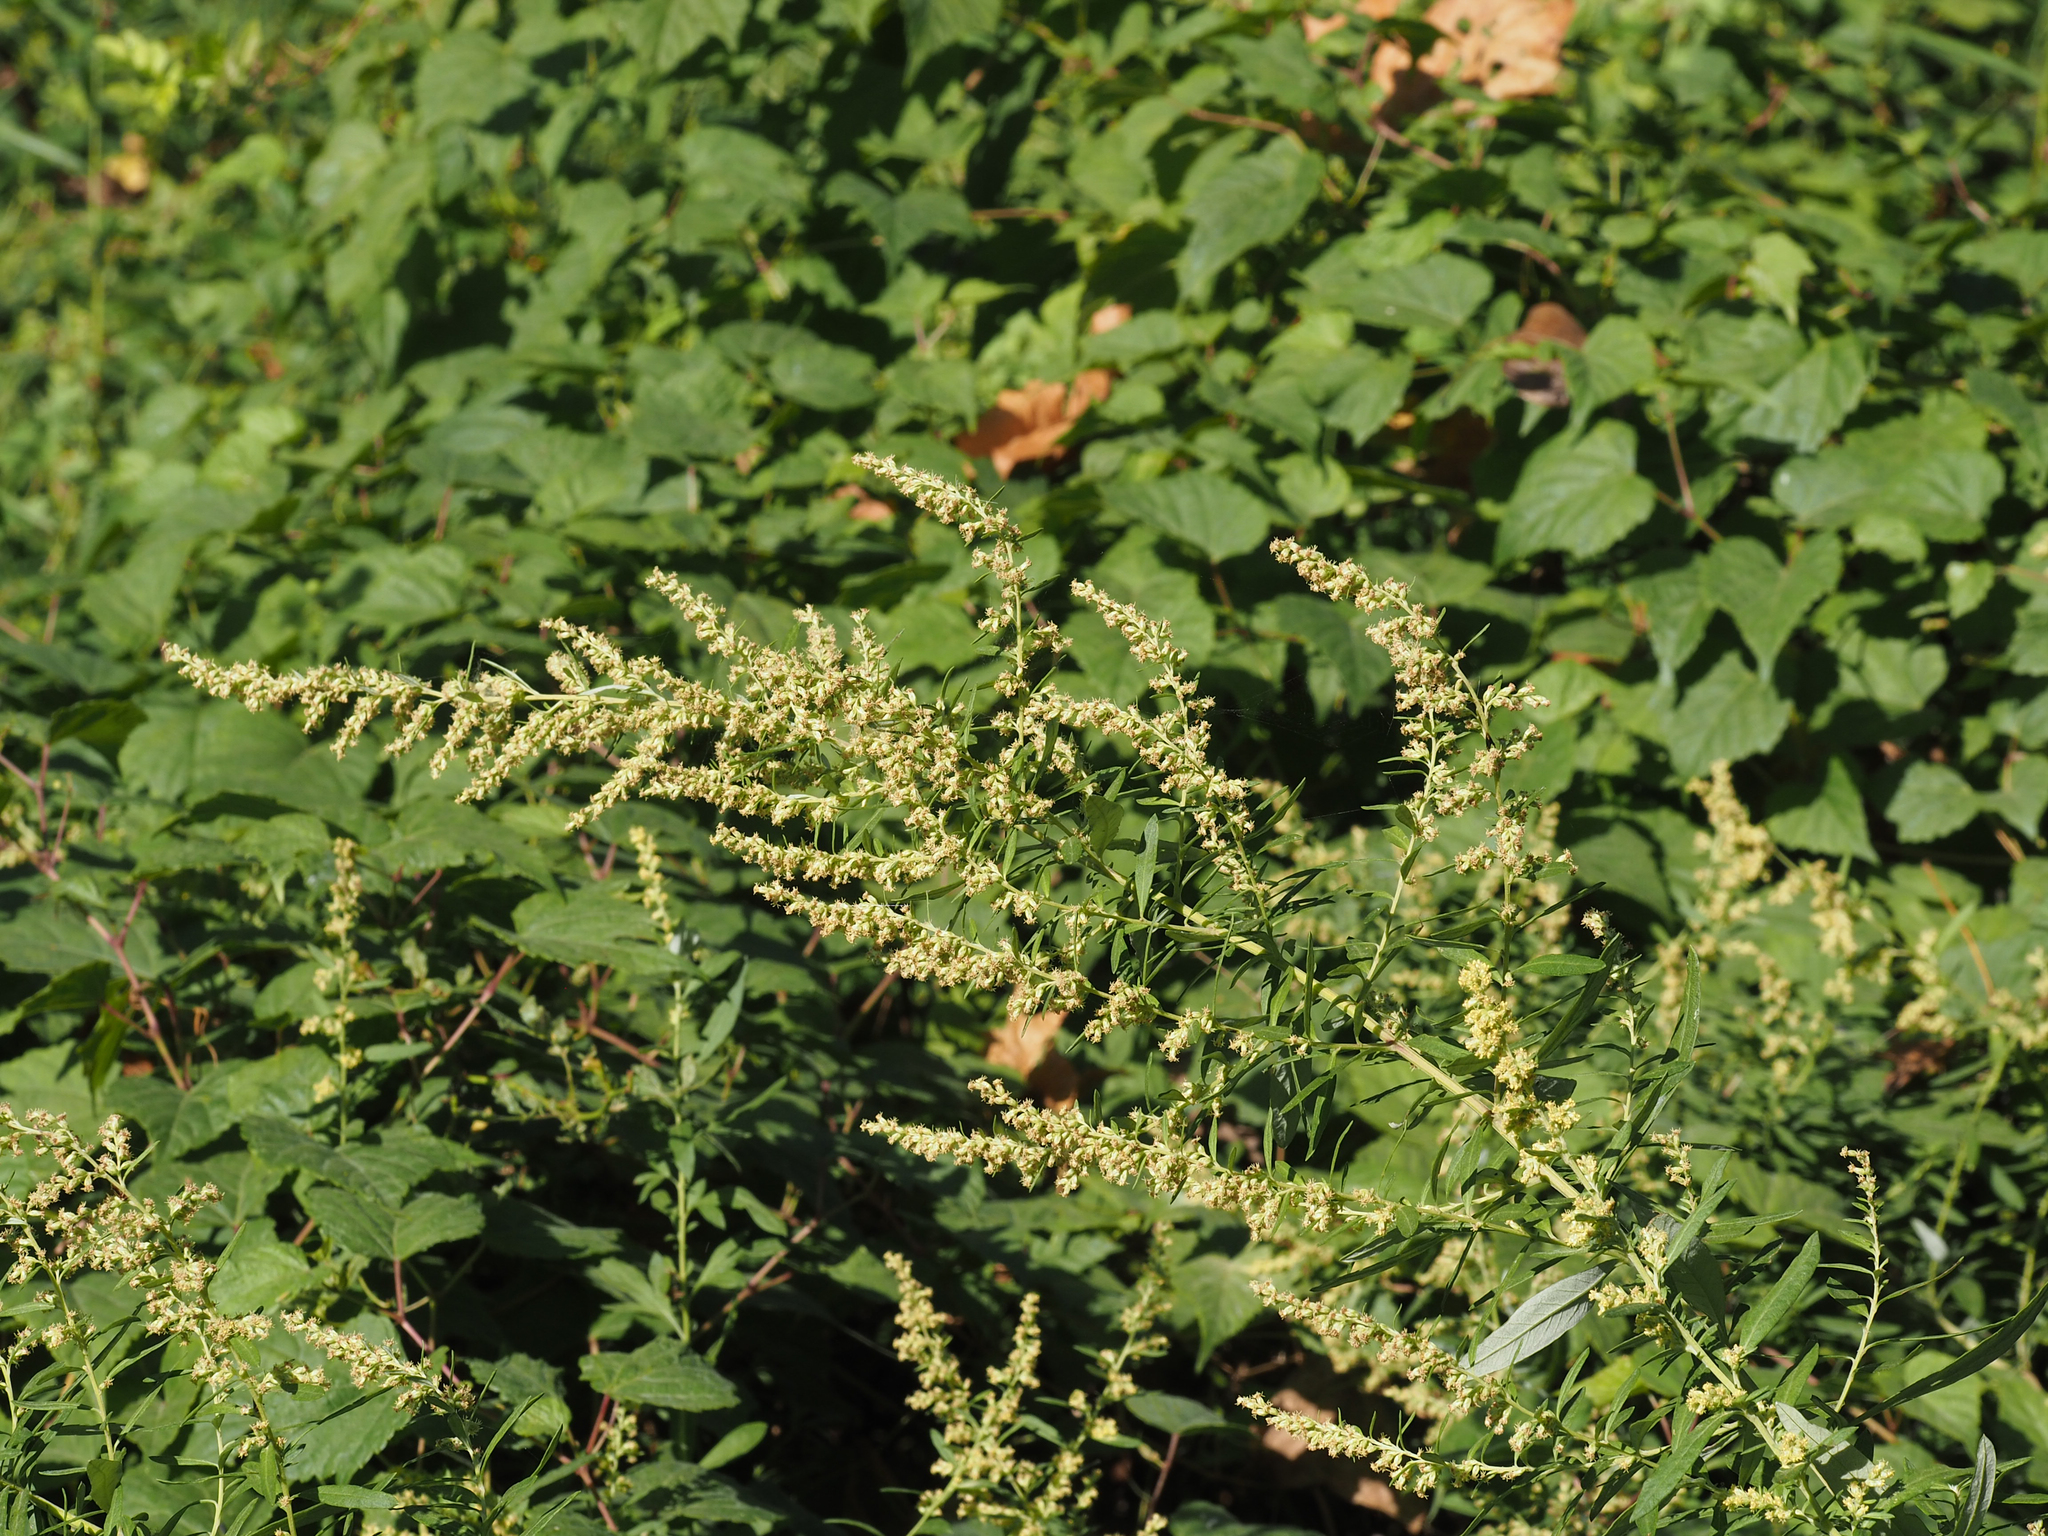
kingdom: Plantae
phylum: Tracheophyta
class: Magnoliopsida
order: Asterales
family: Asteraceae
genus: Artemisia
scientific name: Artemisia vulgaris
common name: Mugwort
